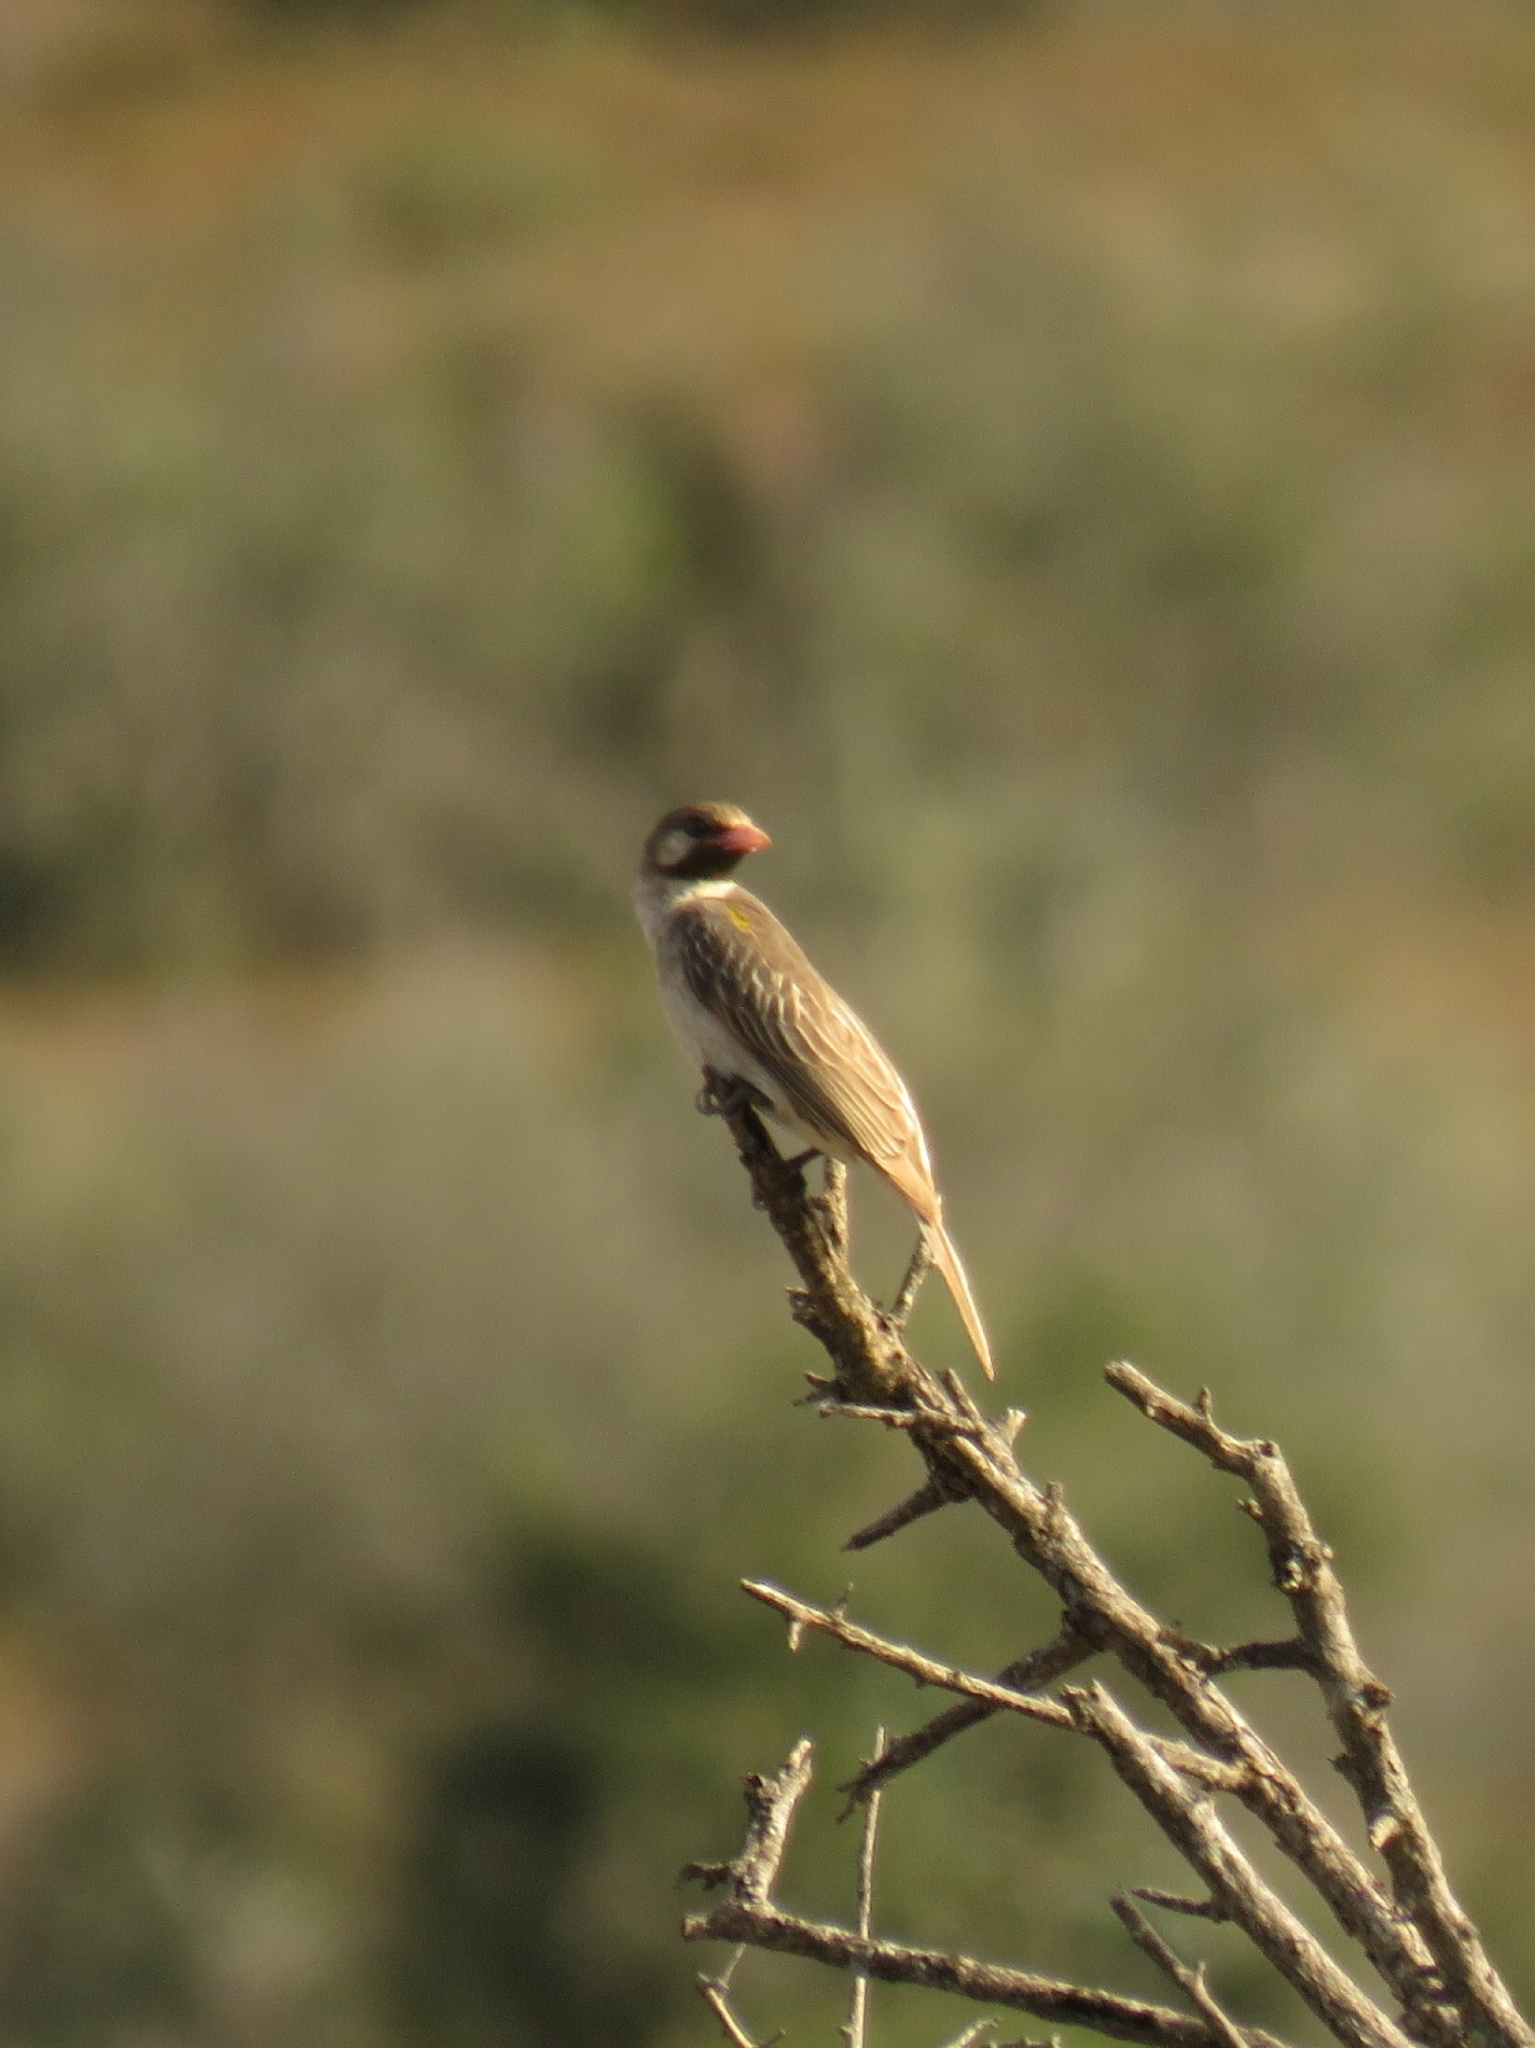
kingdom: Animalia
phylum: Chordata
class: Aves
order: Piciformes
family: Indicatoridae
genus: Indicator
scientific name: Indicator indicator
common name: Greater honeyguide
